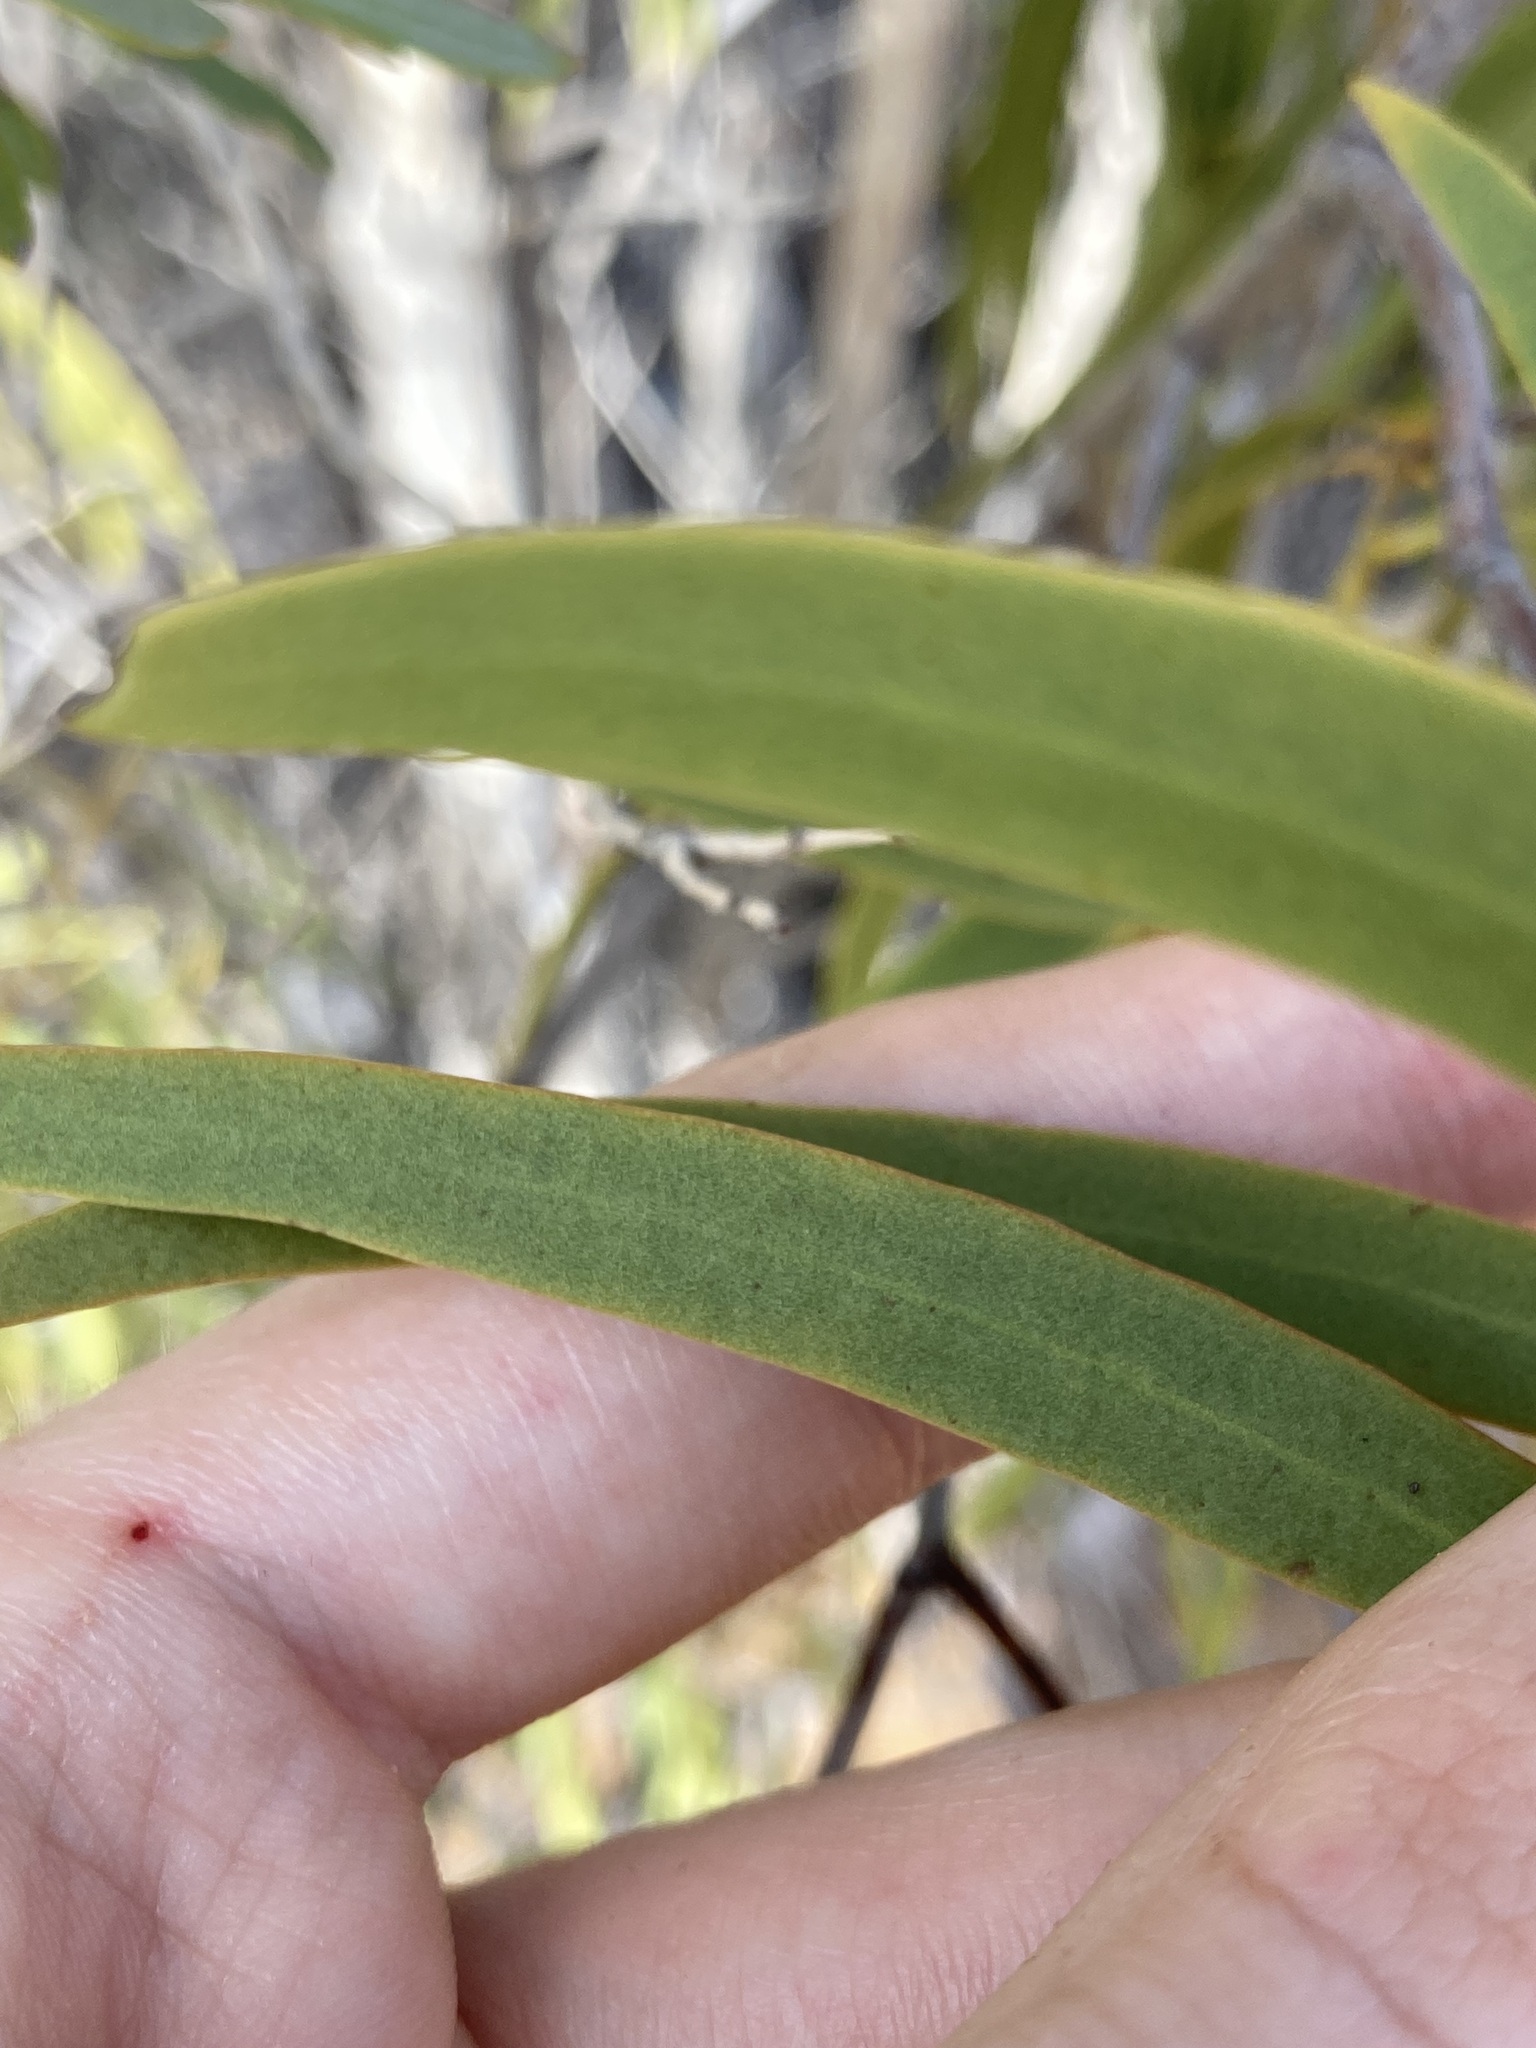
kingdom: Plantae
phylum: Tracheophyta
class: Magnoliopsida
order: Santalales
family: Santalaceae
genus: Santalum
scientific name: Santalum acuminatum
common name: Sweet quandong
